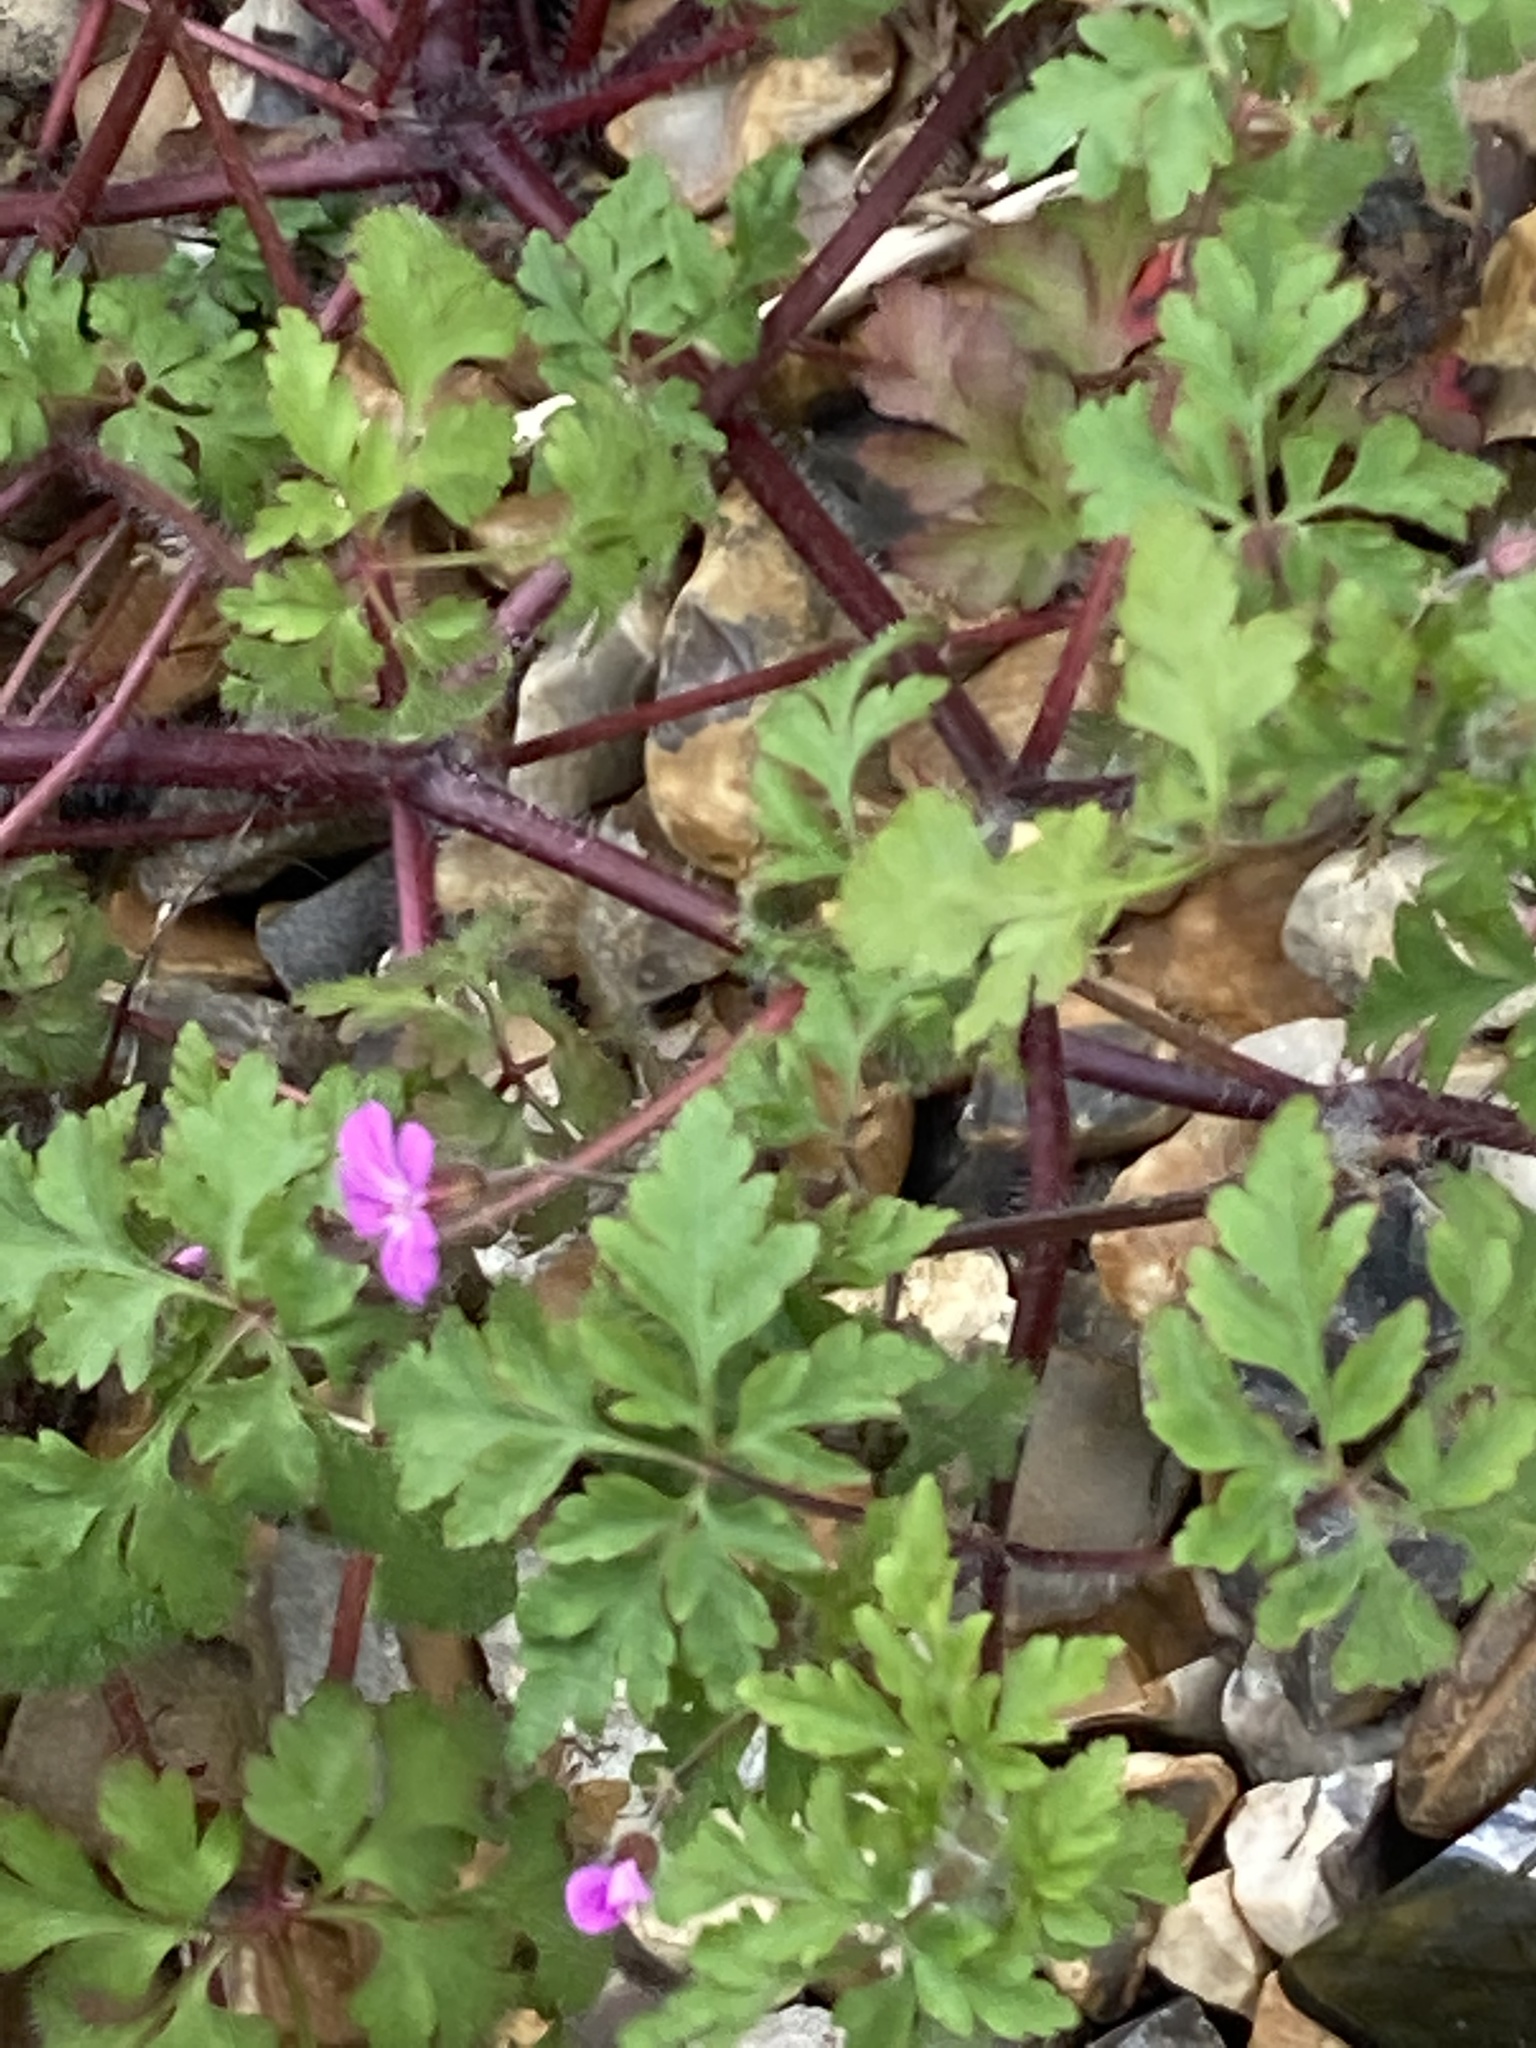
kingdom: Plantae
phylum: Tracheophyta
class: Magnoliopsida
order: Geraniales
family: Geraniaceae
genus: Geranium
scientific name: Geranium robertianum
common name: Herb-robert
